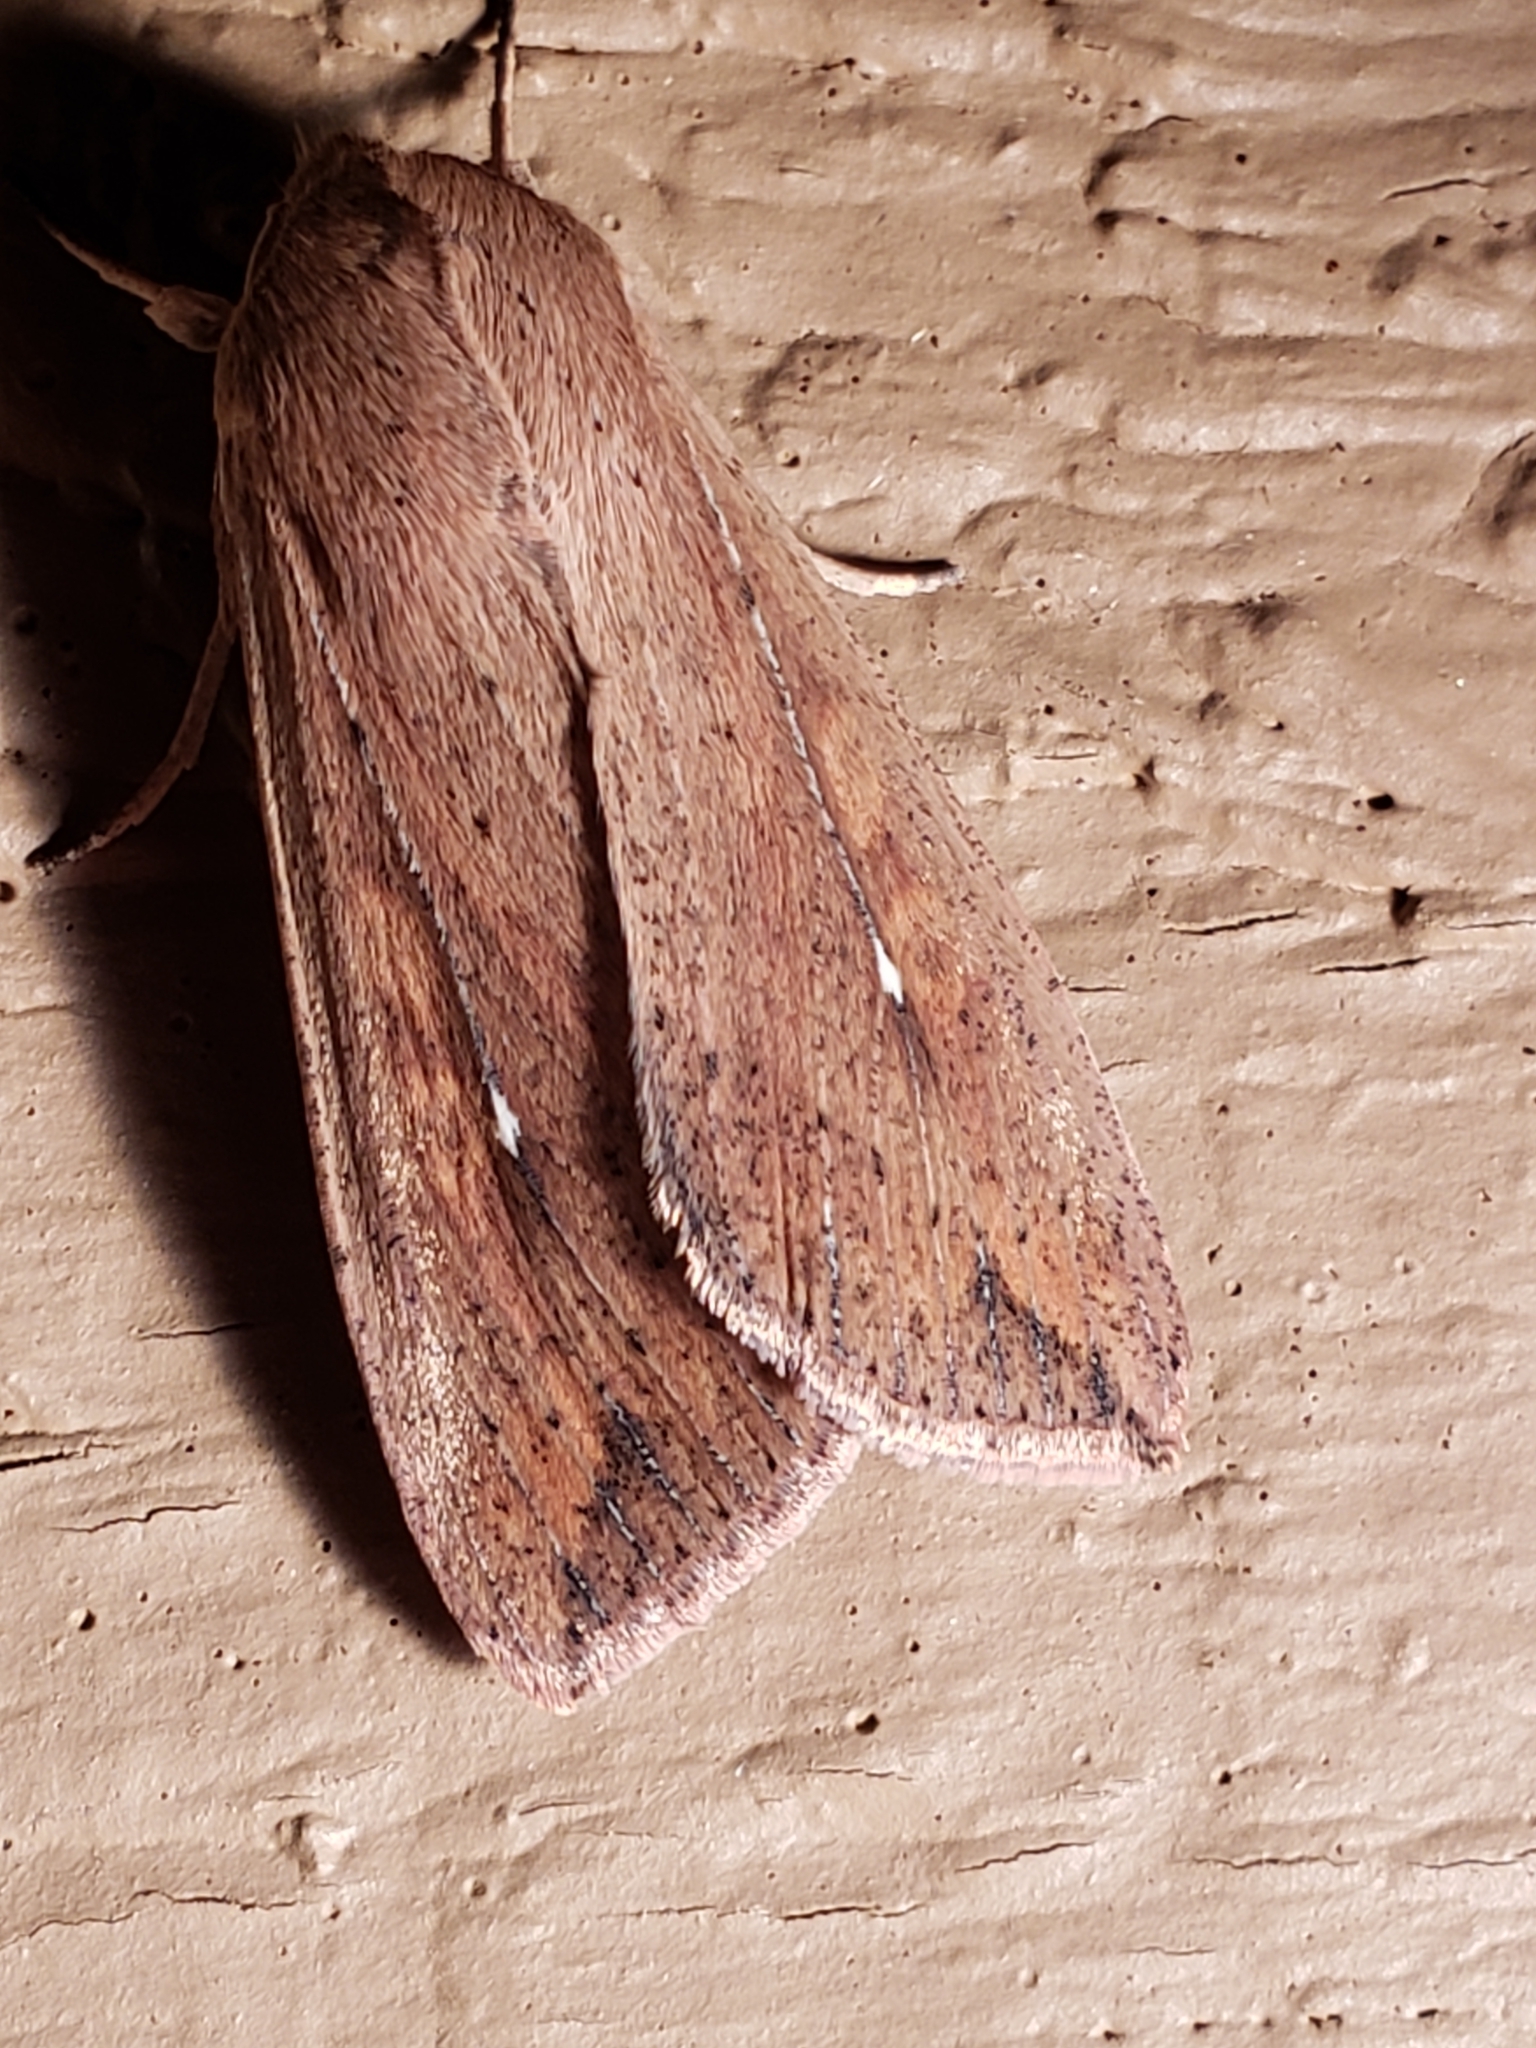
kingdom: Animalia
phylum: Arthropoda
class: Insecta
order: Lepidoptera
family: Noctuidae
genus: Mythimna
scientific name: Mythimna unipuncta
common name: White-speck
